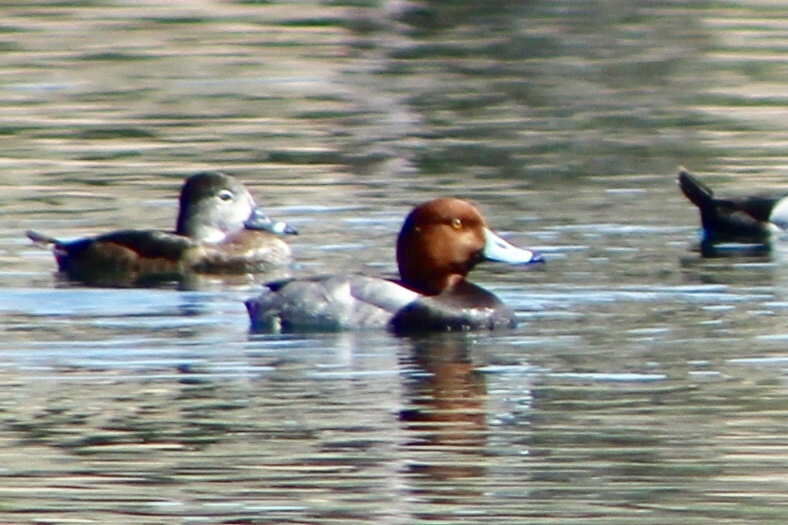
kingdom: Animalia
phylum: Chordata
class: Aves
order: Anseriformes
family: Anatidae
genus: Aythya
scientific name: Aythya americana
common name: Redhead
